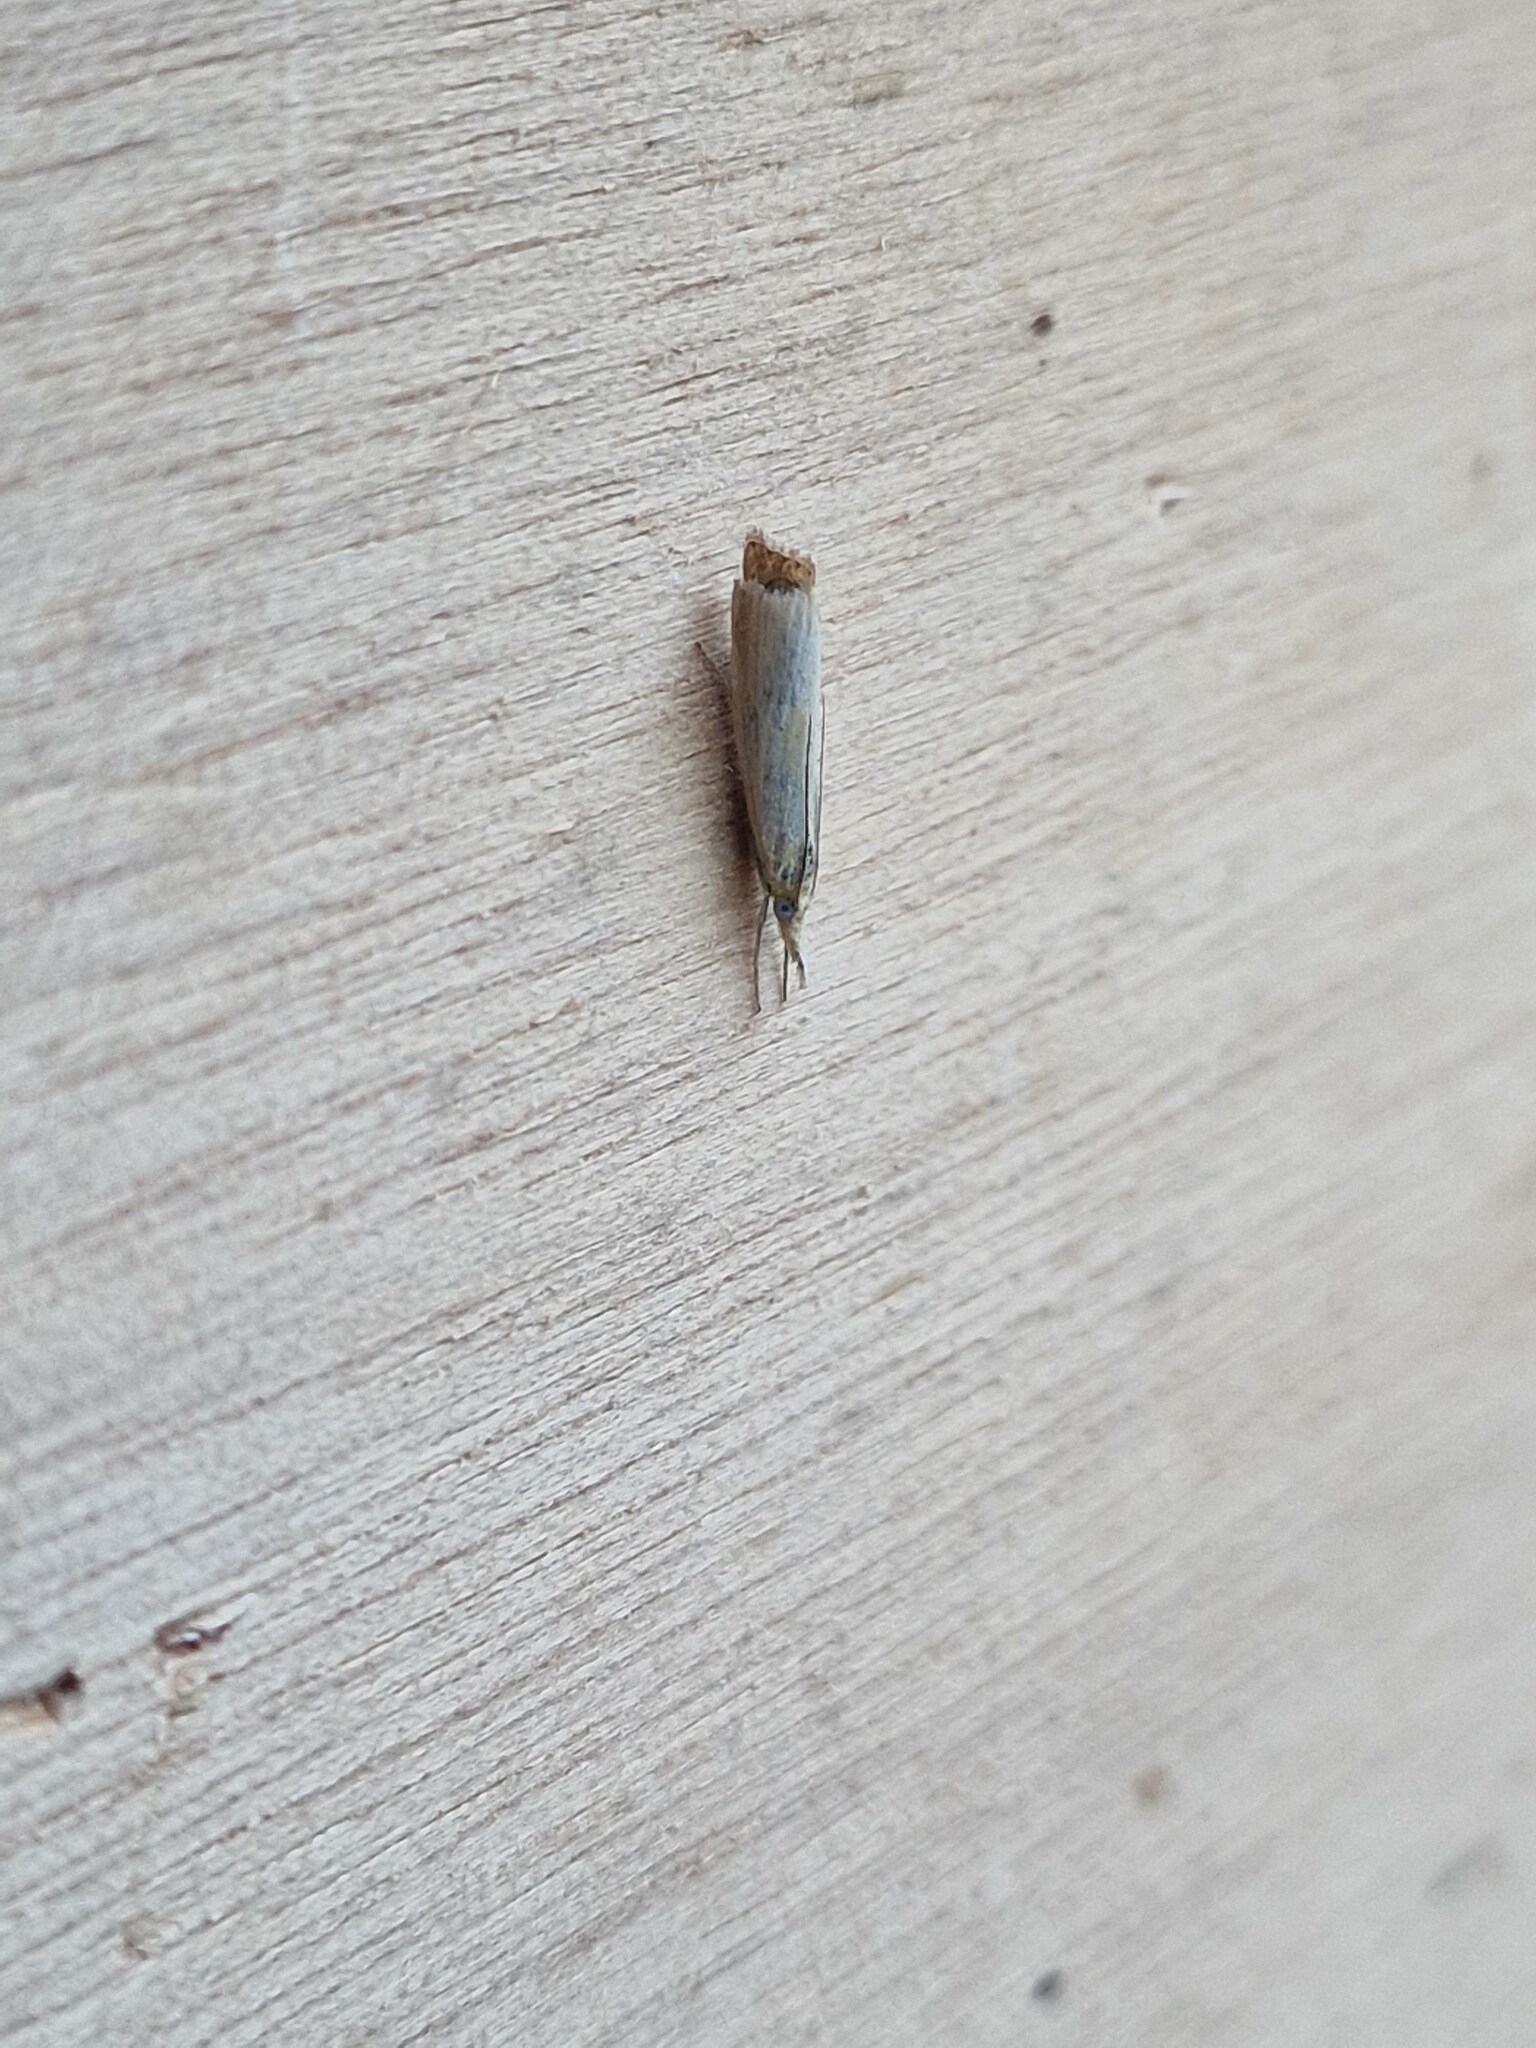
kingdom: Animalia
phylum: Arthropoda
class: Insecta
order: Lepidoptera
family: Crambidae
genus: Agriphila
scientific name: Agriphila straminella
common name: Straw grass-veneer
